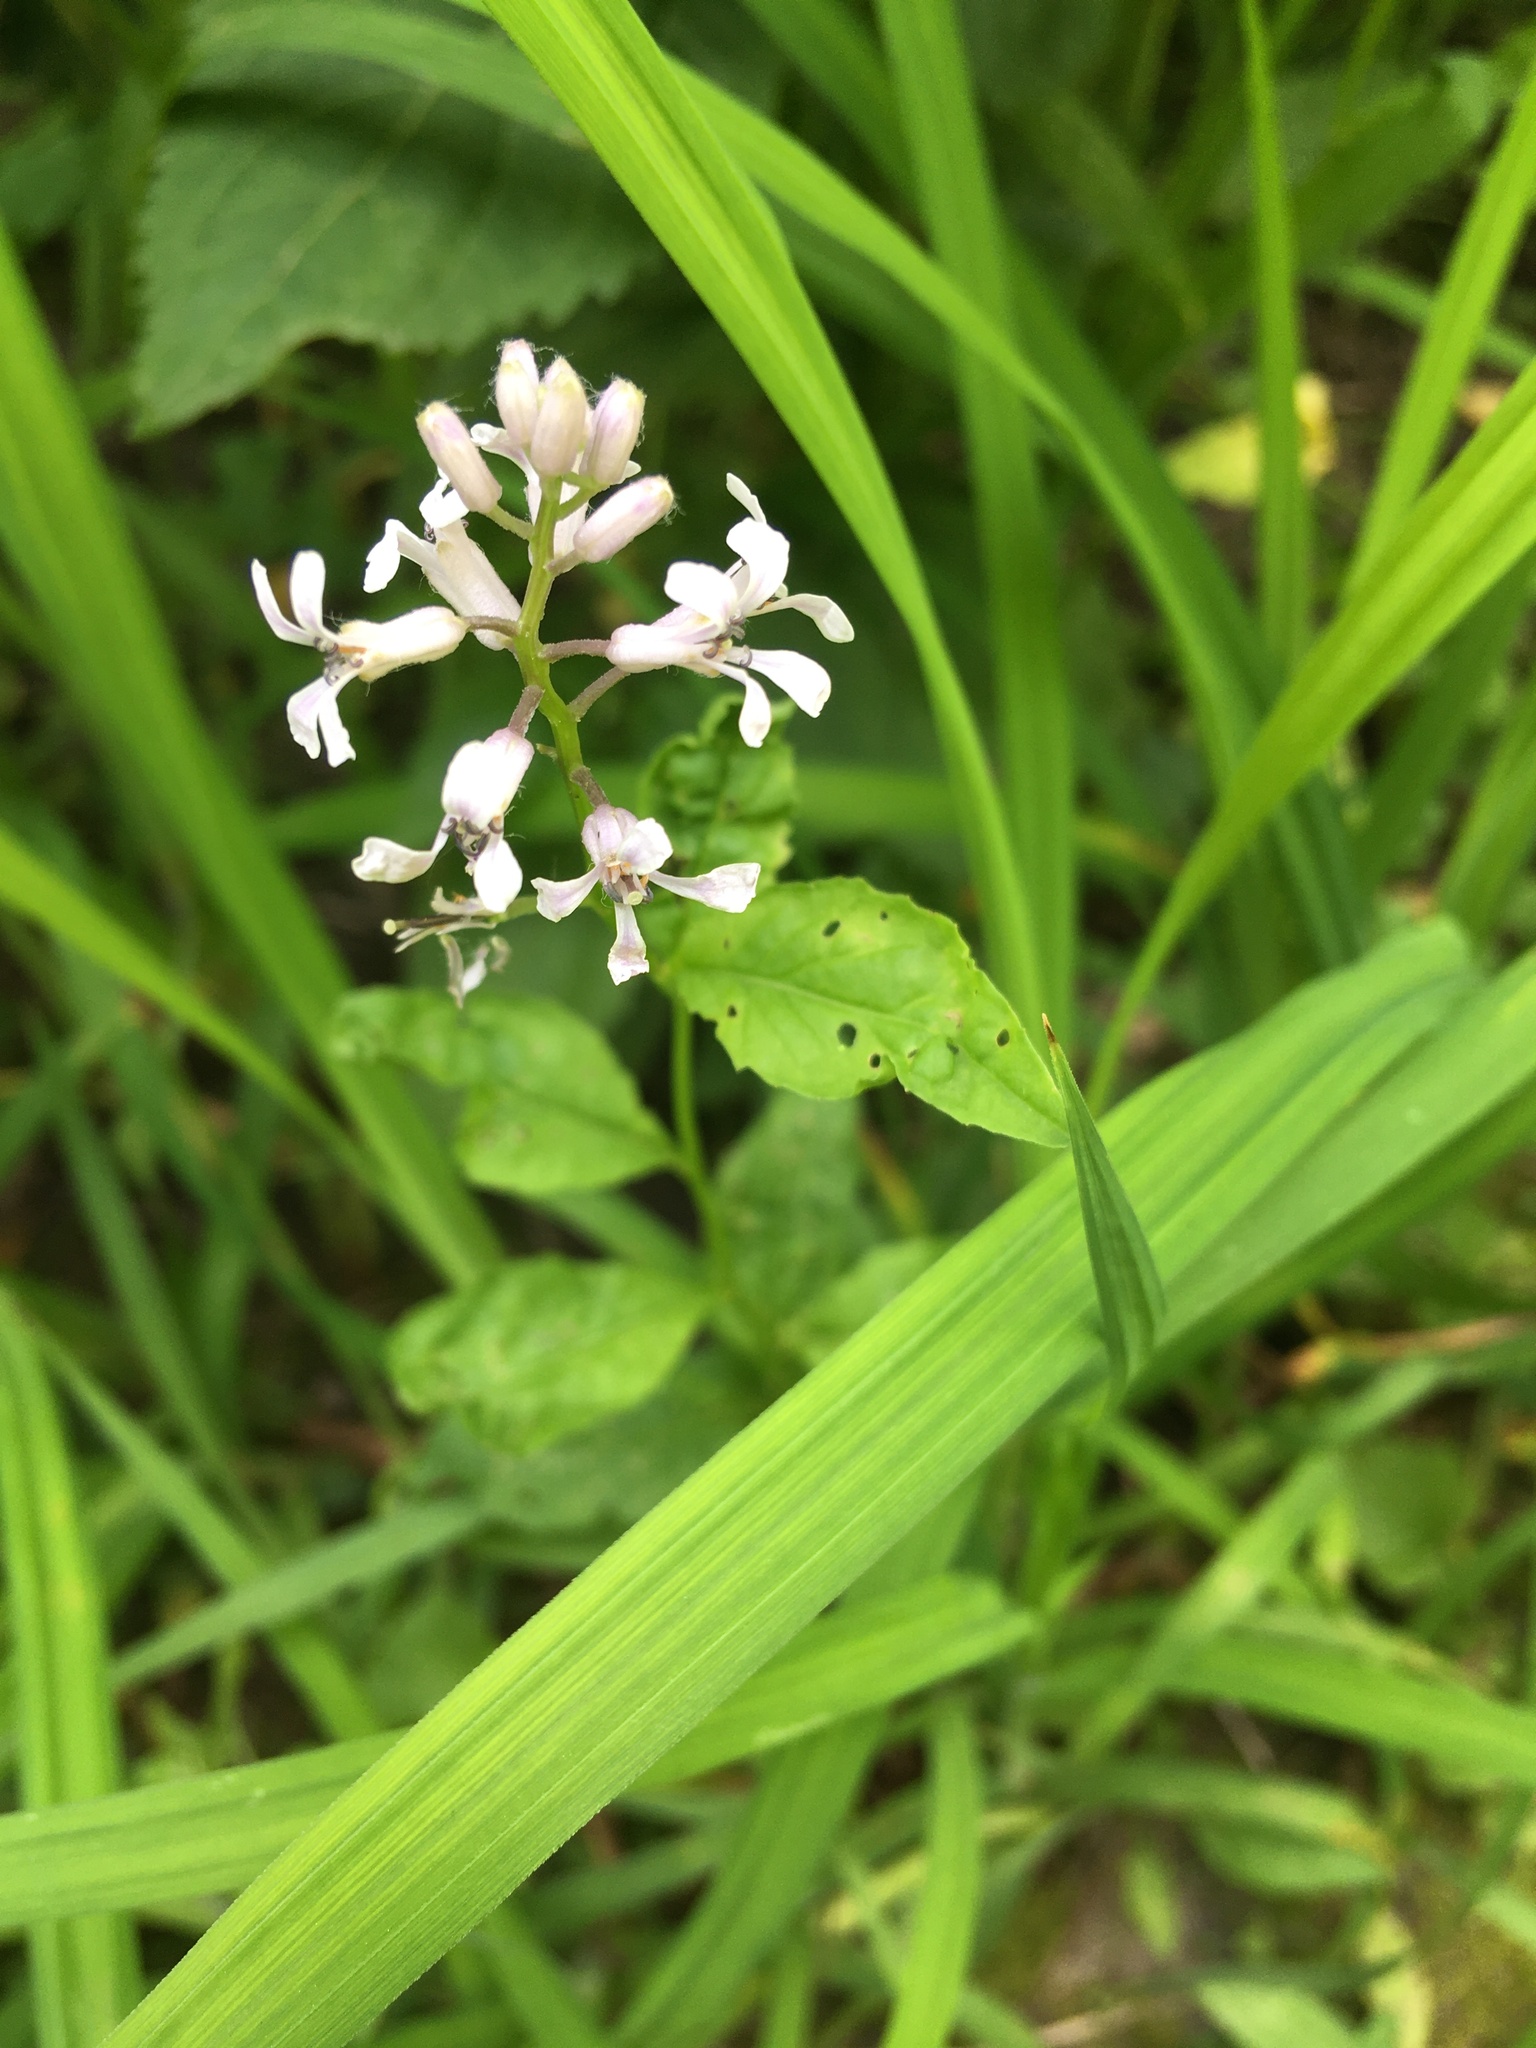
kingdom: Plantae
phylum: Tracheophyta
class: Magnoliopsida
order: Brassicales
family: Brassicaceae
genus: Iodanthus
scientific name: Iodanthus pinnatifidus
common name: Violet rocket
